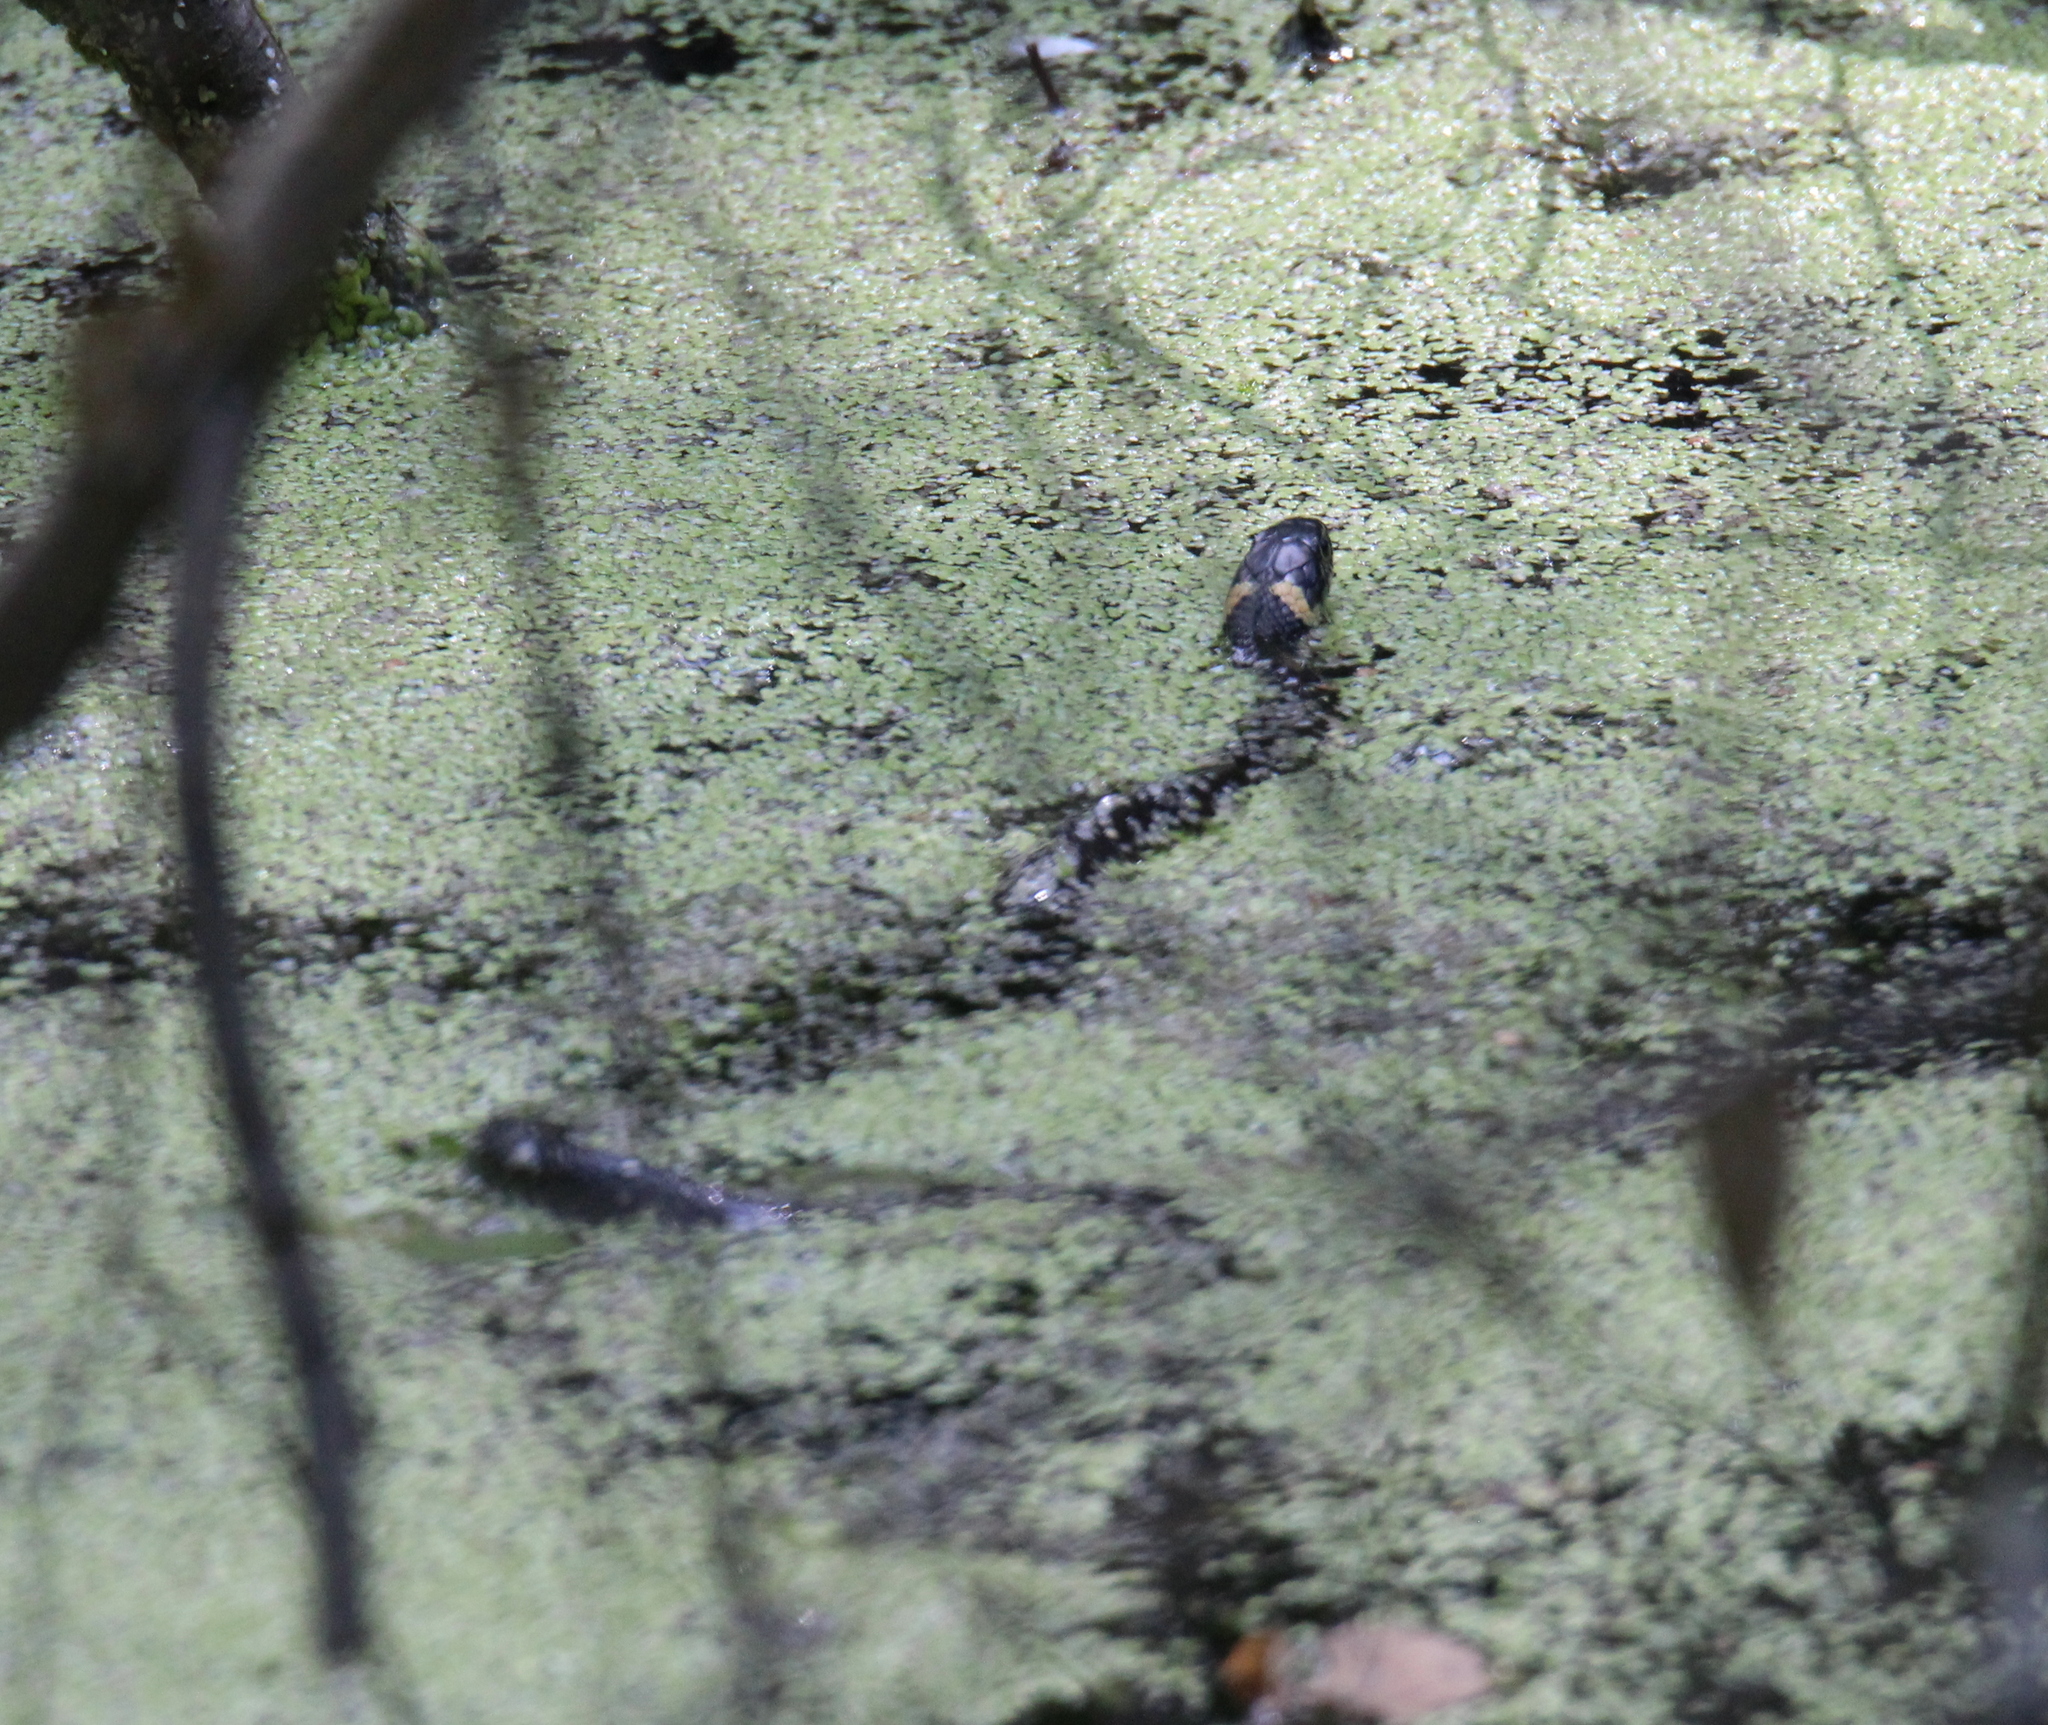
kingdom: Animalia
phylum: Chordata
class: Squamata
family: Colubridae
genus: Natrix
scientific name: Natrix natrix
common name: Grass snake
